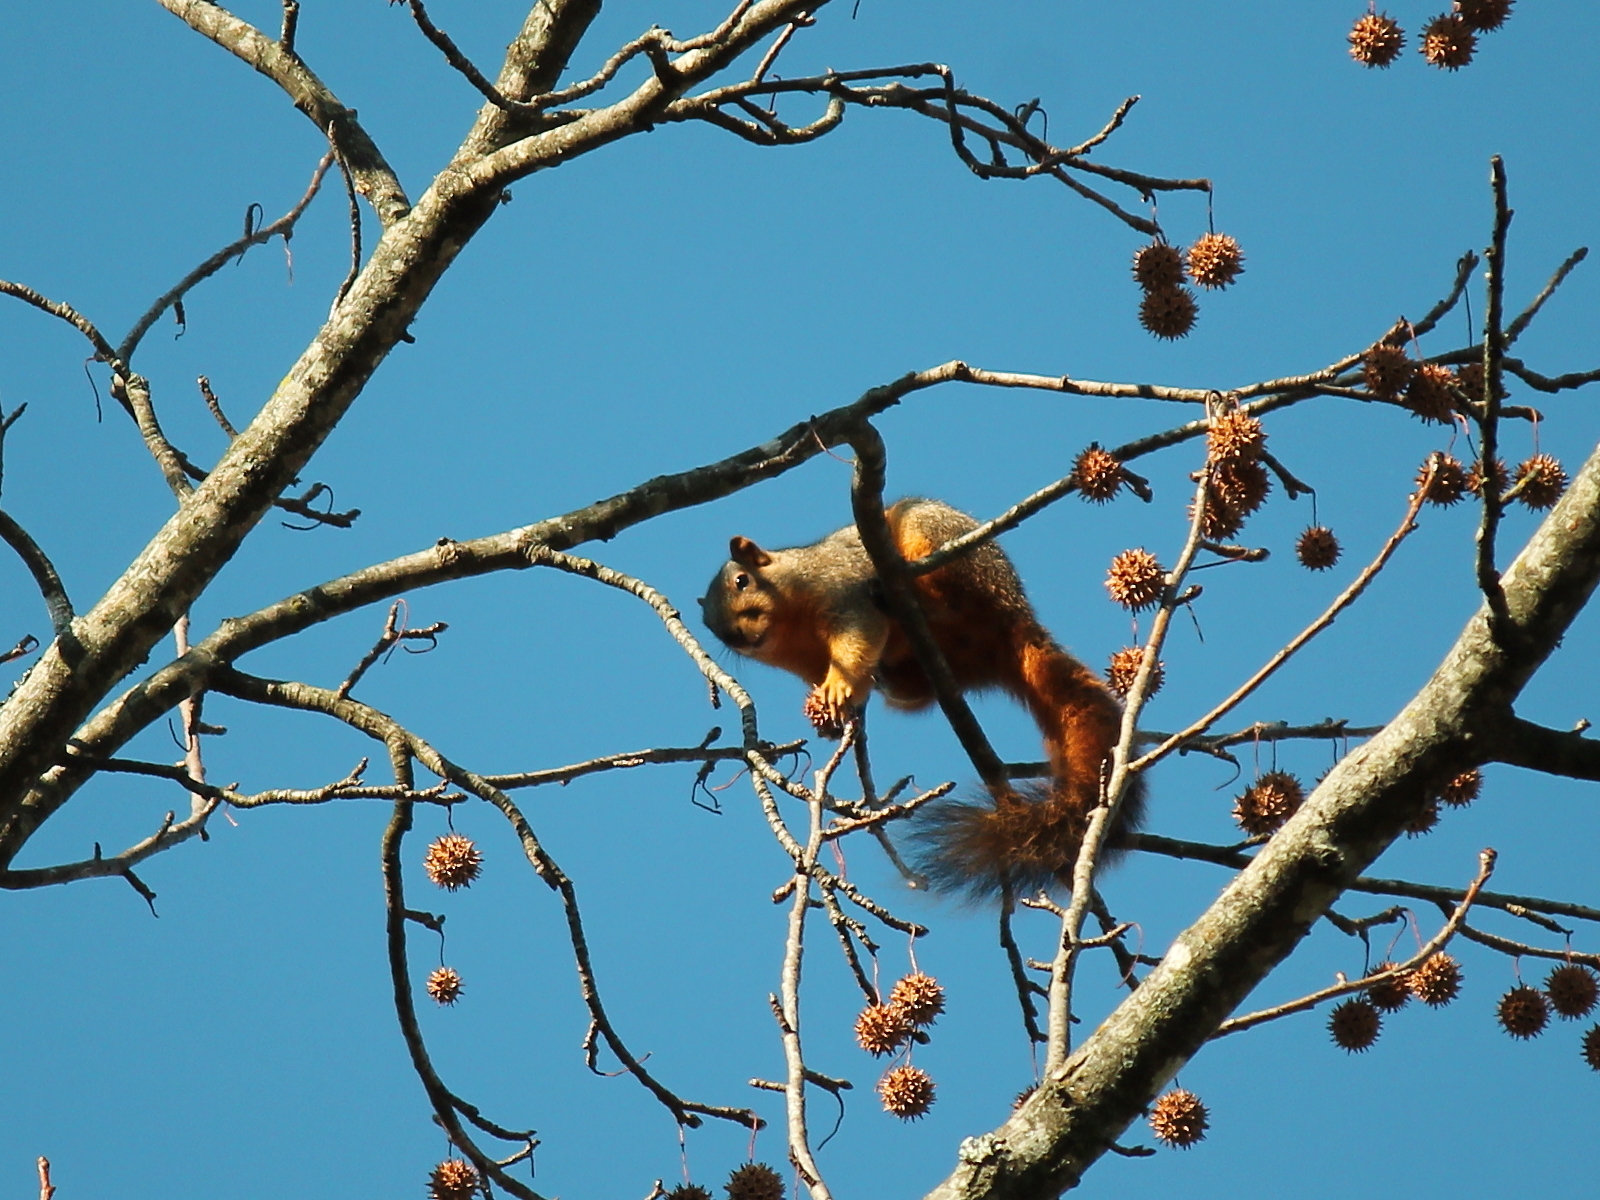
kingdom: Animalia
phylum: Chordata
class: Mammalia
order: Rodentia
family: Sciuridae
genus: Sciurus
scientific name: Sciurus niger
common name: Fox squirrel
